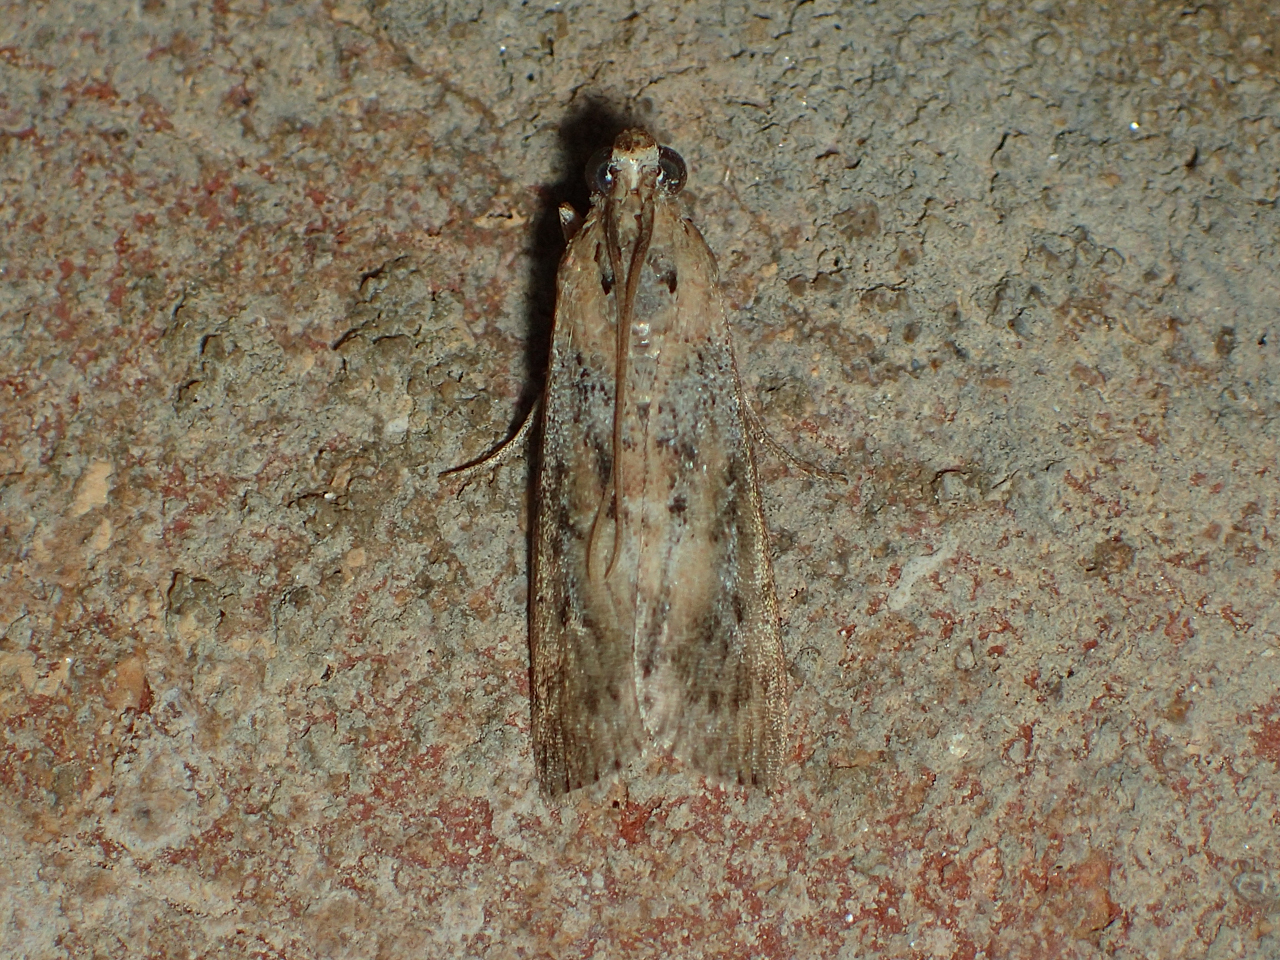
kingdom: Animalia
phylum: Arthropoda
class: Insecta
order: Lepidoptera
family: Pyralidae
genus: Sciota
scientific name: Sciota celtidella
